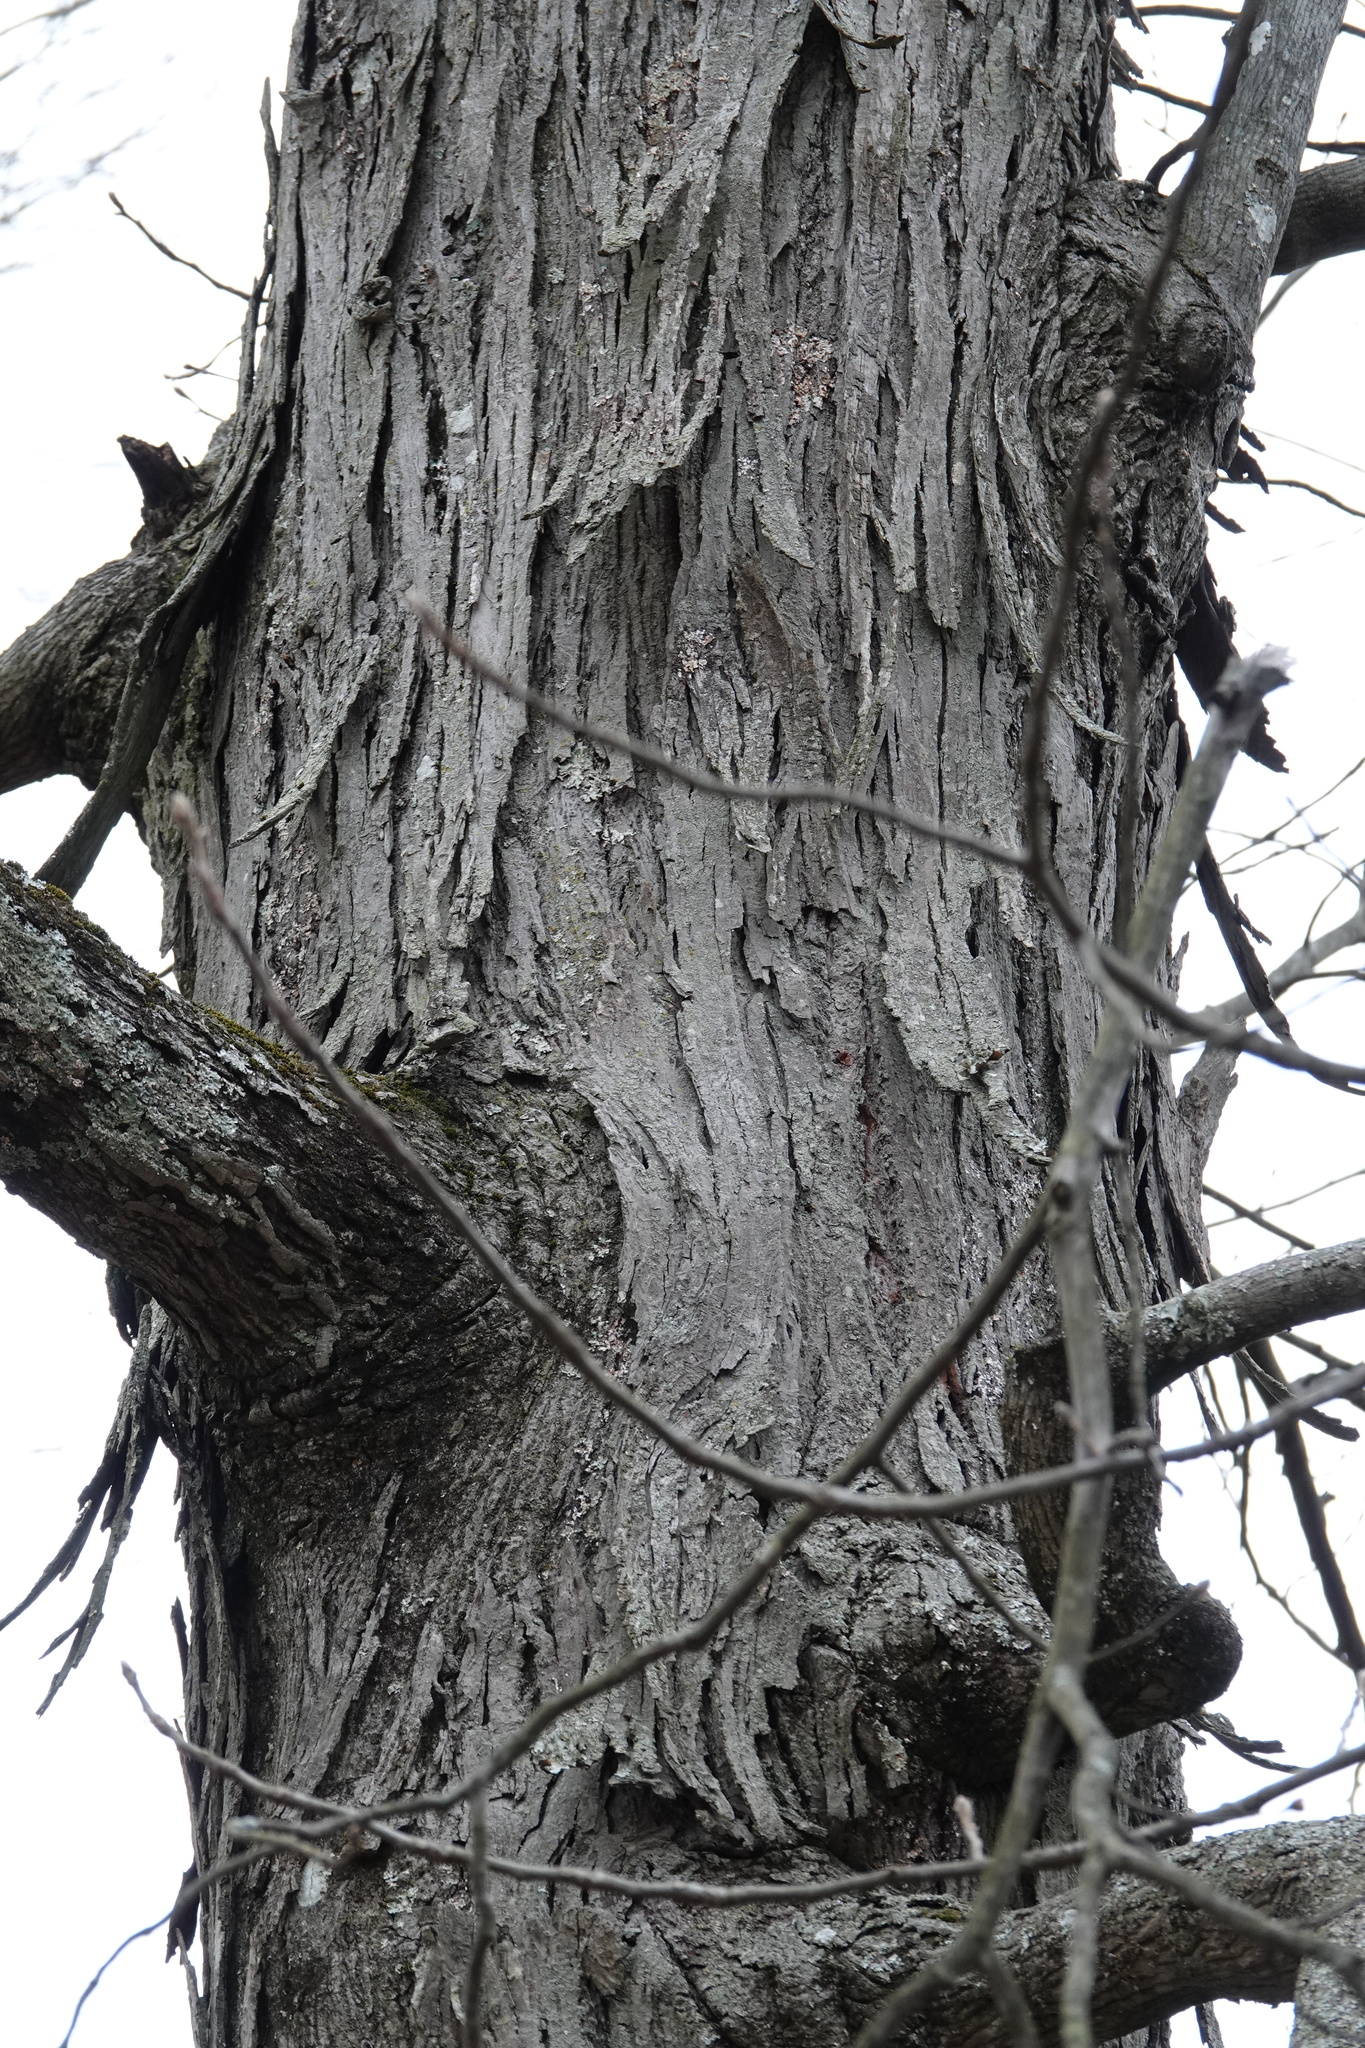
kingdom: Plantae
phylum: Tracheophyta
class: Magnoliopsida
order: Fagales
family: Juglandaceae
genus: Carya
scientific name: Carya ovata
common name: Shagbark hickory
